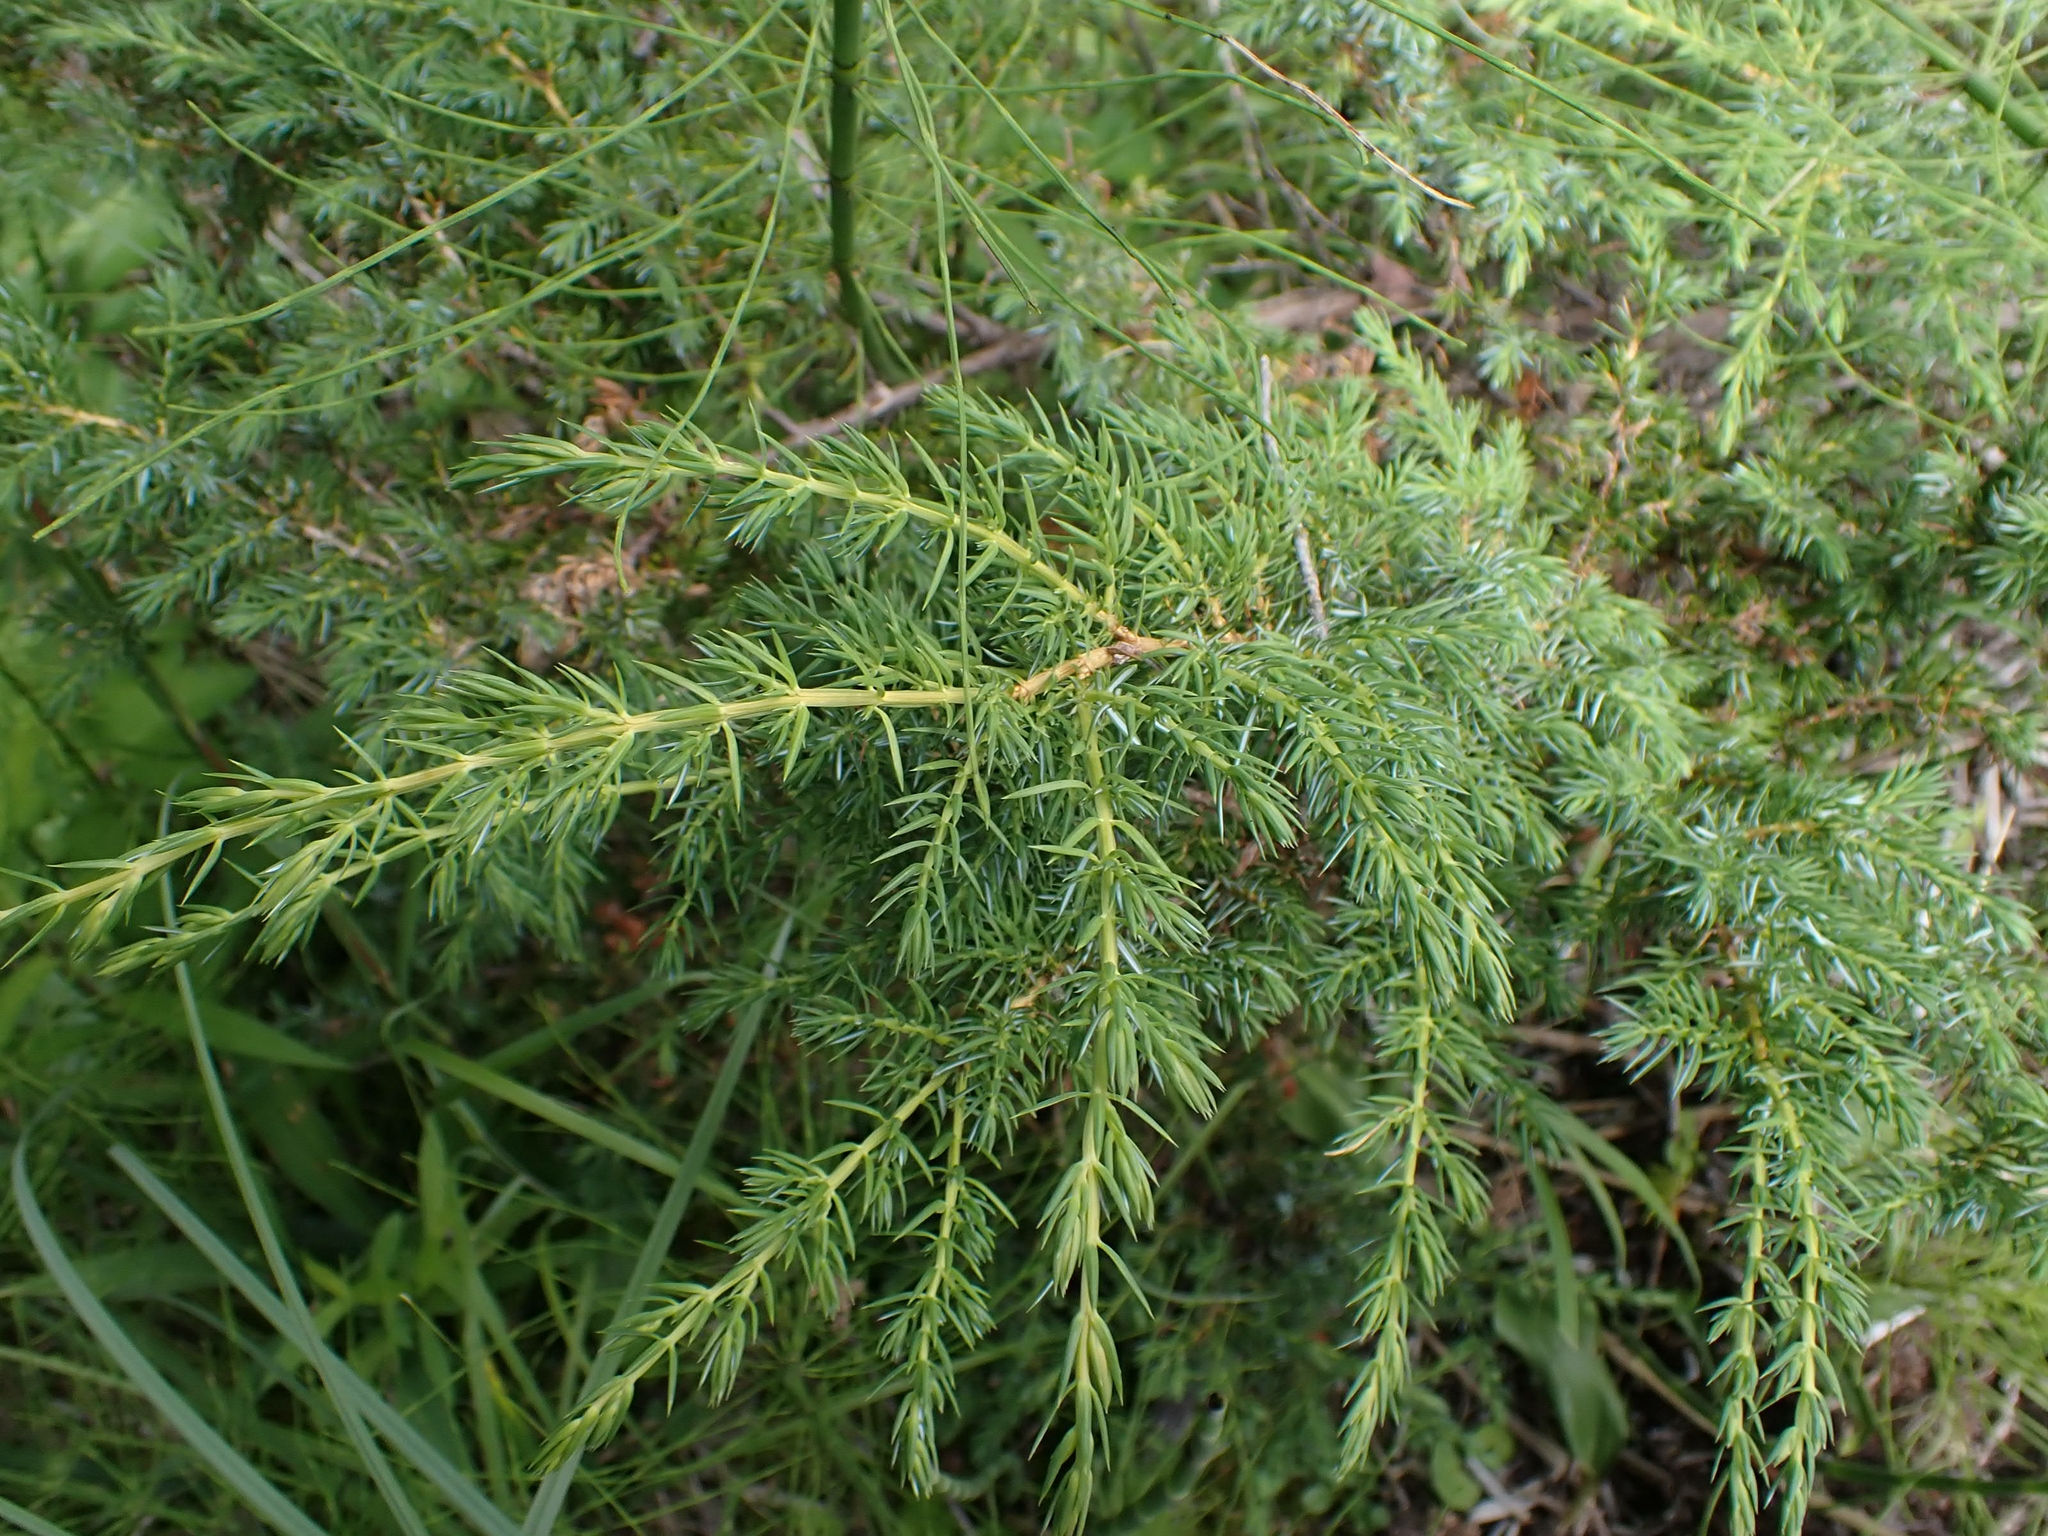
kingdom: Plantae
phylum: Tracheophyta
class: Pinopsida
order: Pinales
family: Cupressaceae
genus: Juniperus
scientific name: Juniperus communis
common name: Common juniper
